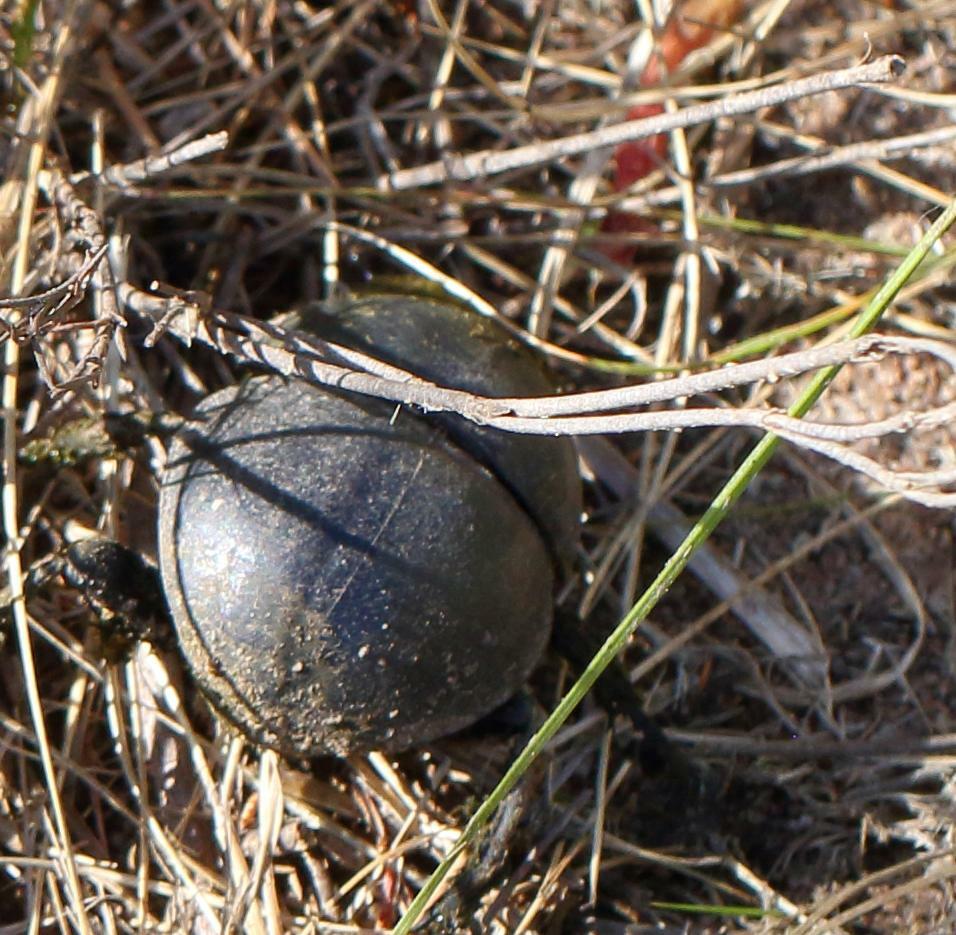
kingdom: Animalia
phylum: Arthropoda
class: Insecta
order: Coleoptera
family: Scarabaeidae
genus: Circellium
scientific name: Circellium bacchus
